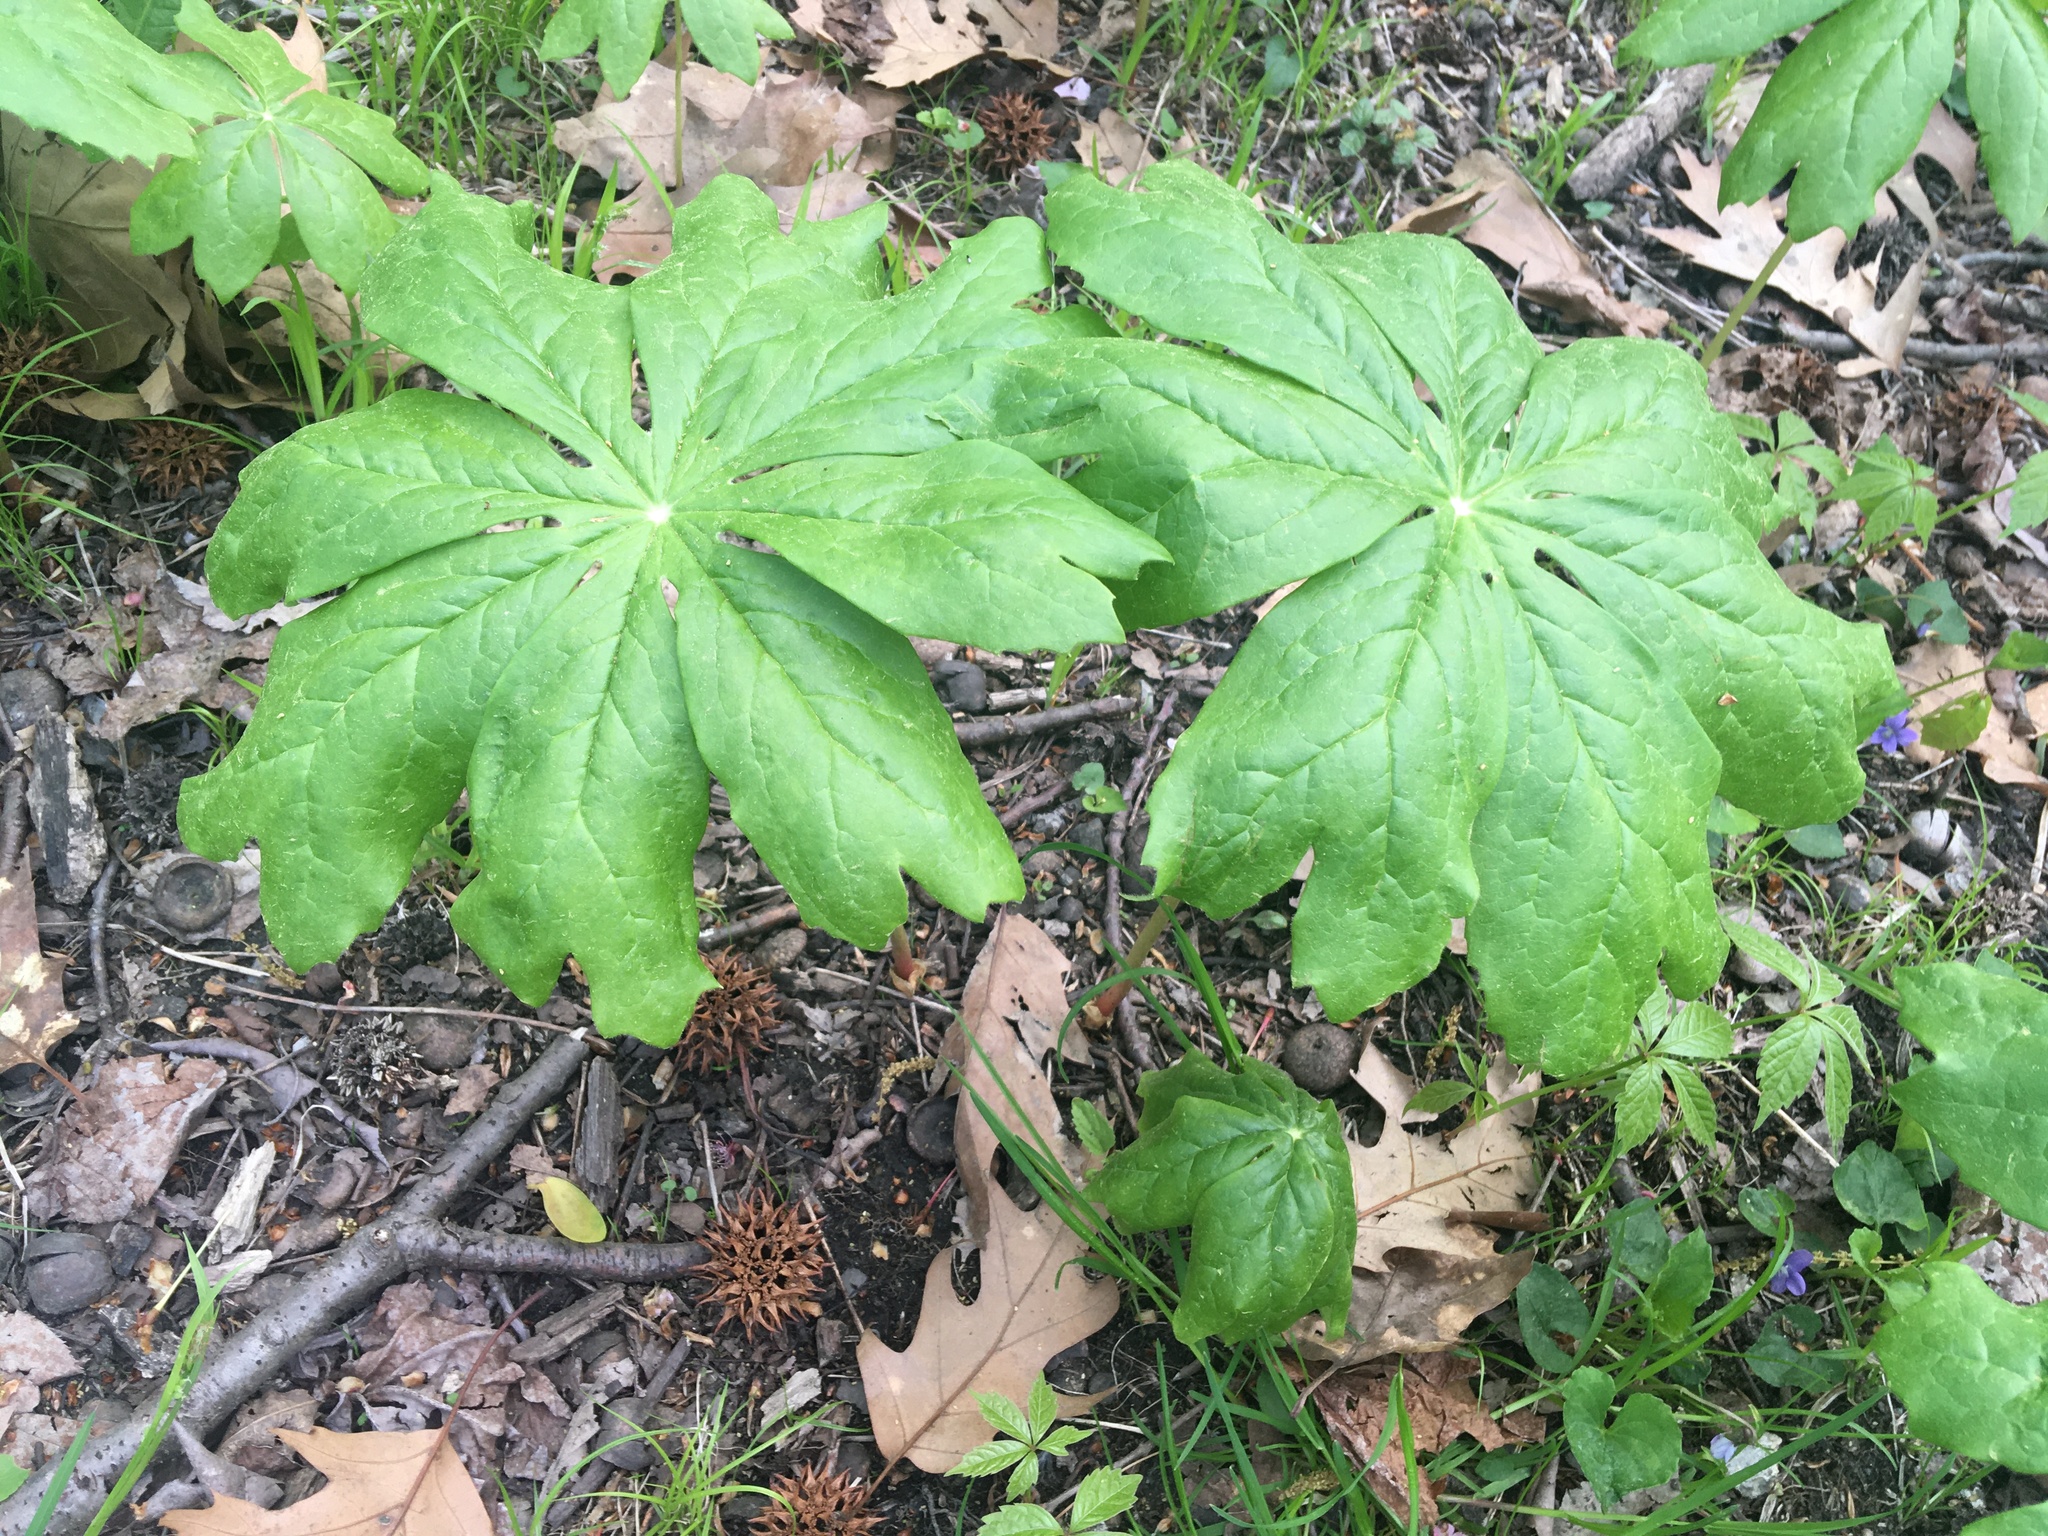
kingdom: Plantae
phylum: Tracheophyta
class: Magnoliopsida
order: Ranunculales
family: Berberidaceae
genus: Podophyllum
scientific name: Podophyllum peltatum
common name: Wild mandrake
